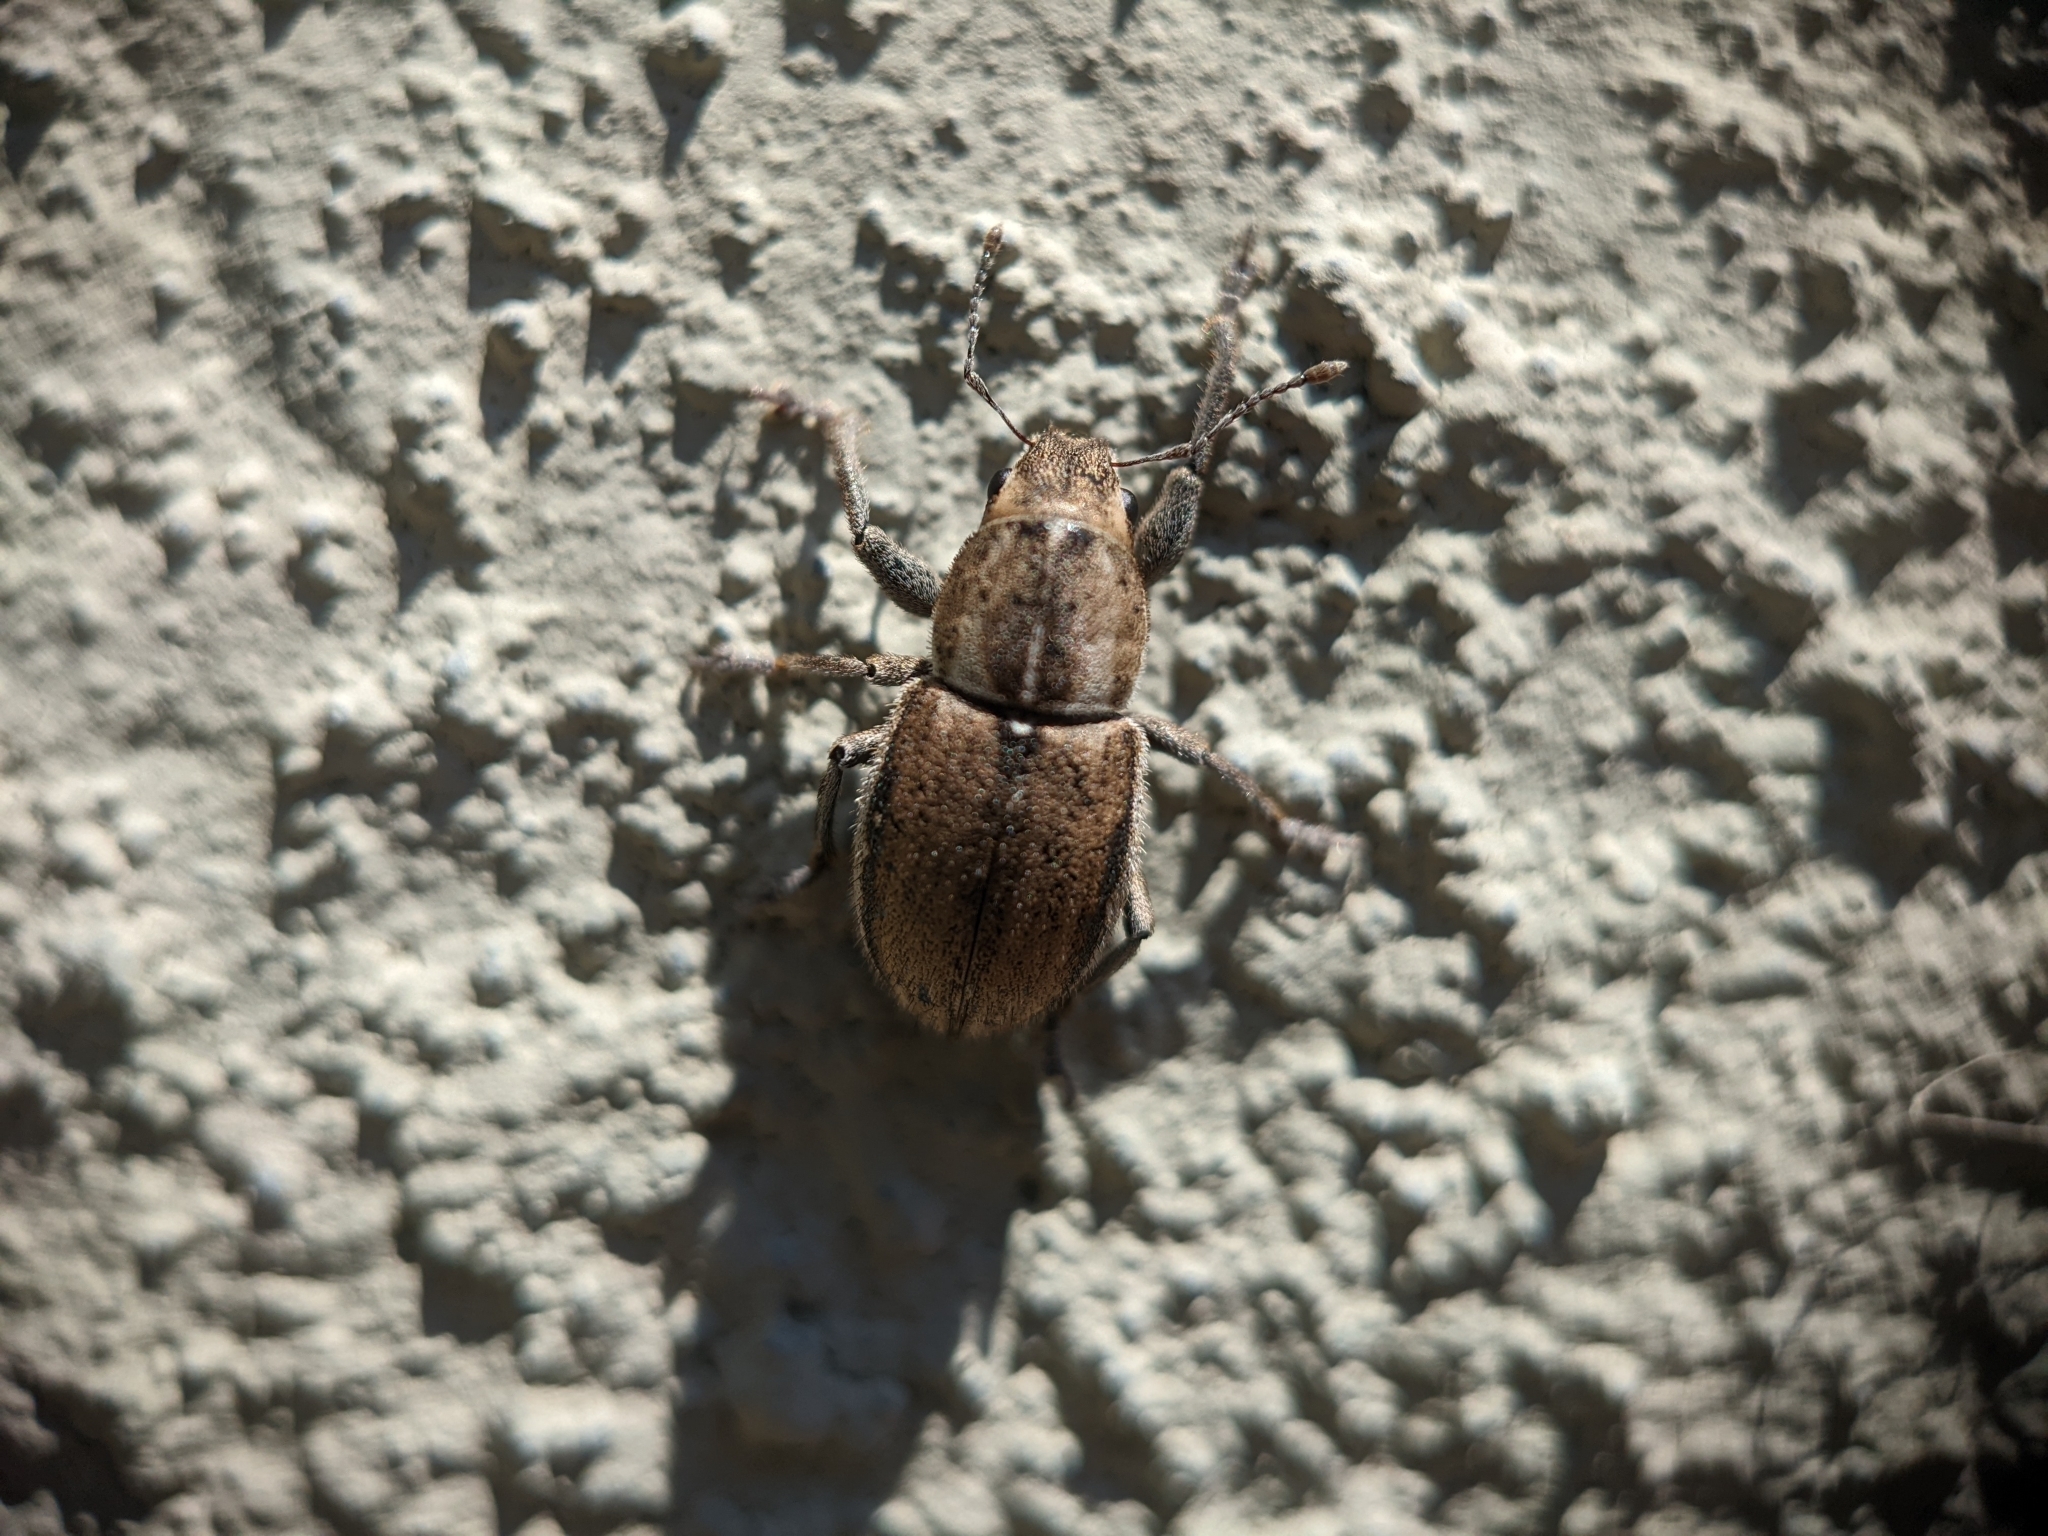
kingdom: Animalia
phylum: Arthropoda
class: Insecta
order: Coleoptera
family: Curculionidae
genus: Naupactus
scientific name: Naupactus peregrinus
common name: Whitefringed beetle
